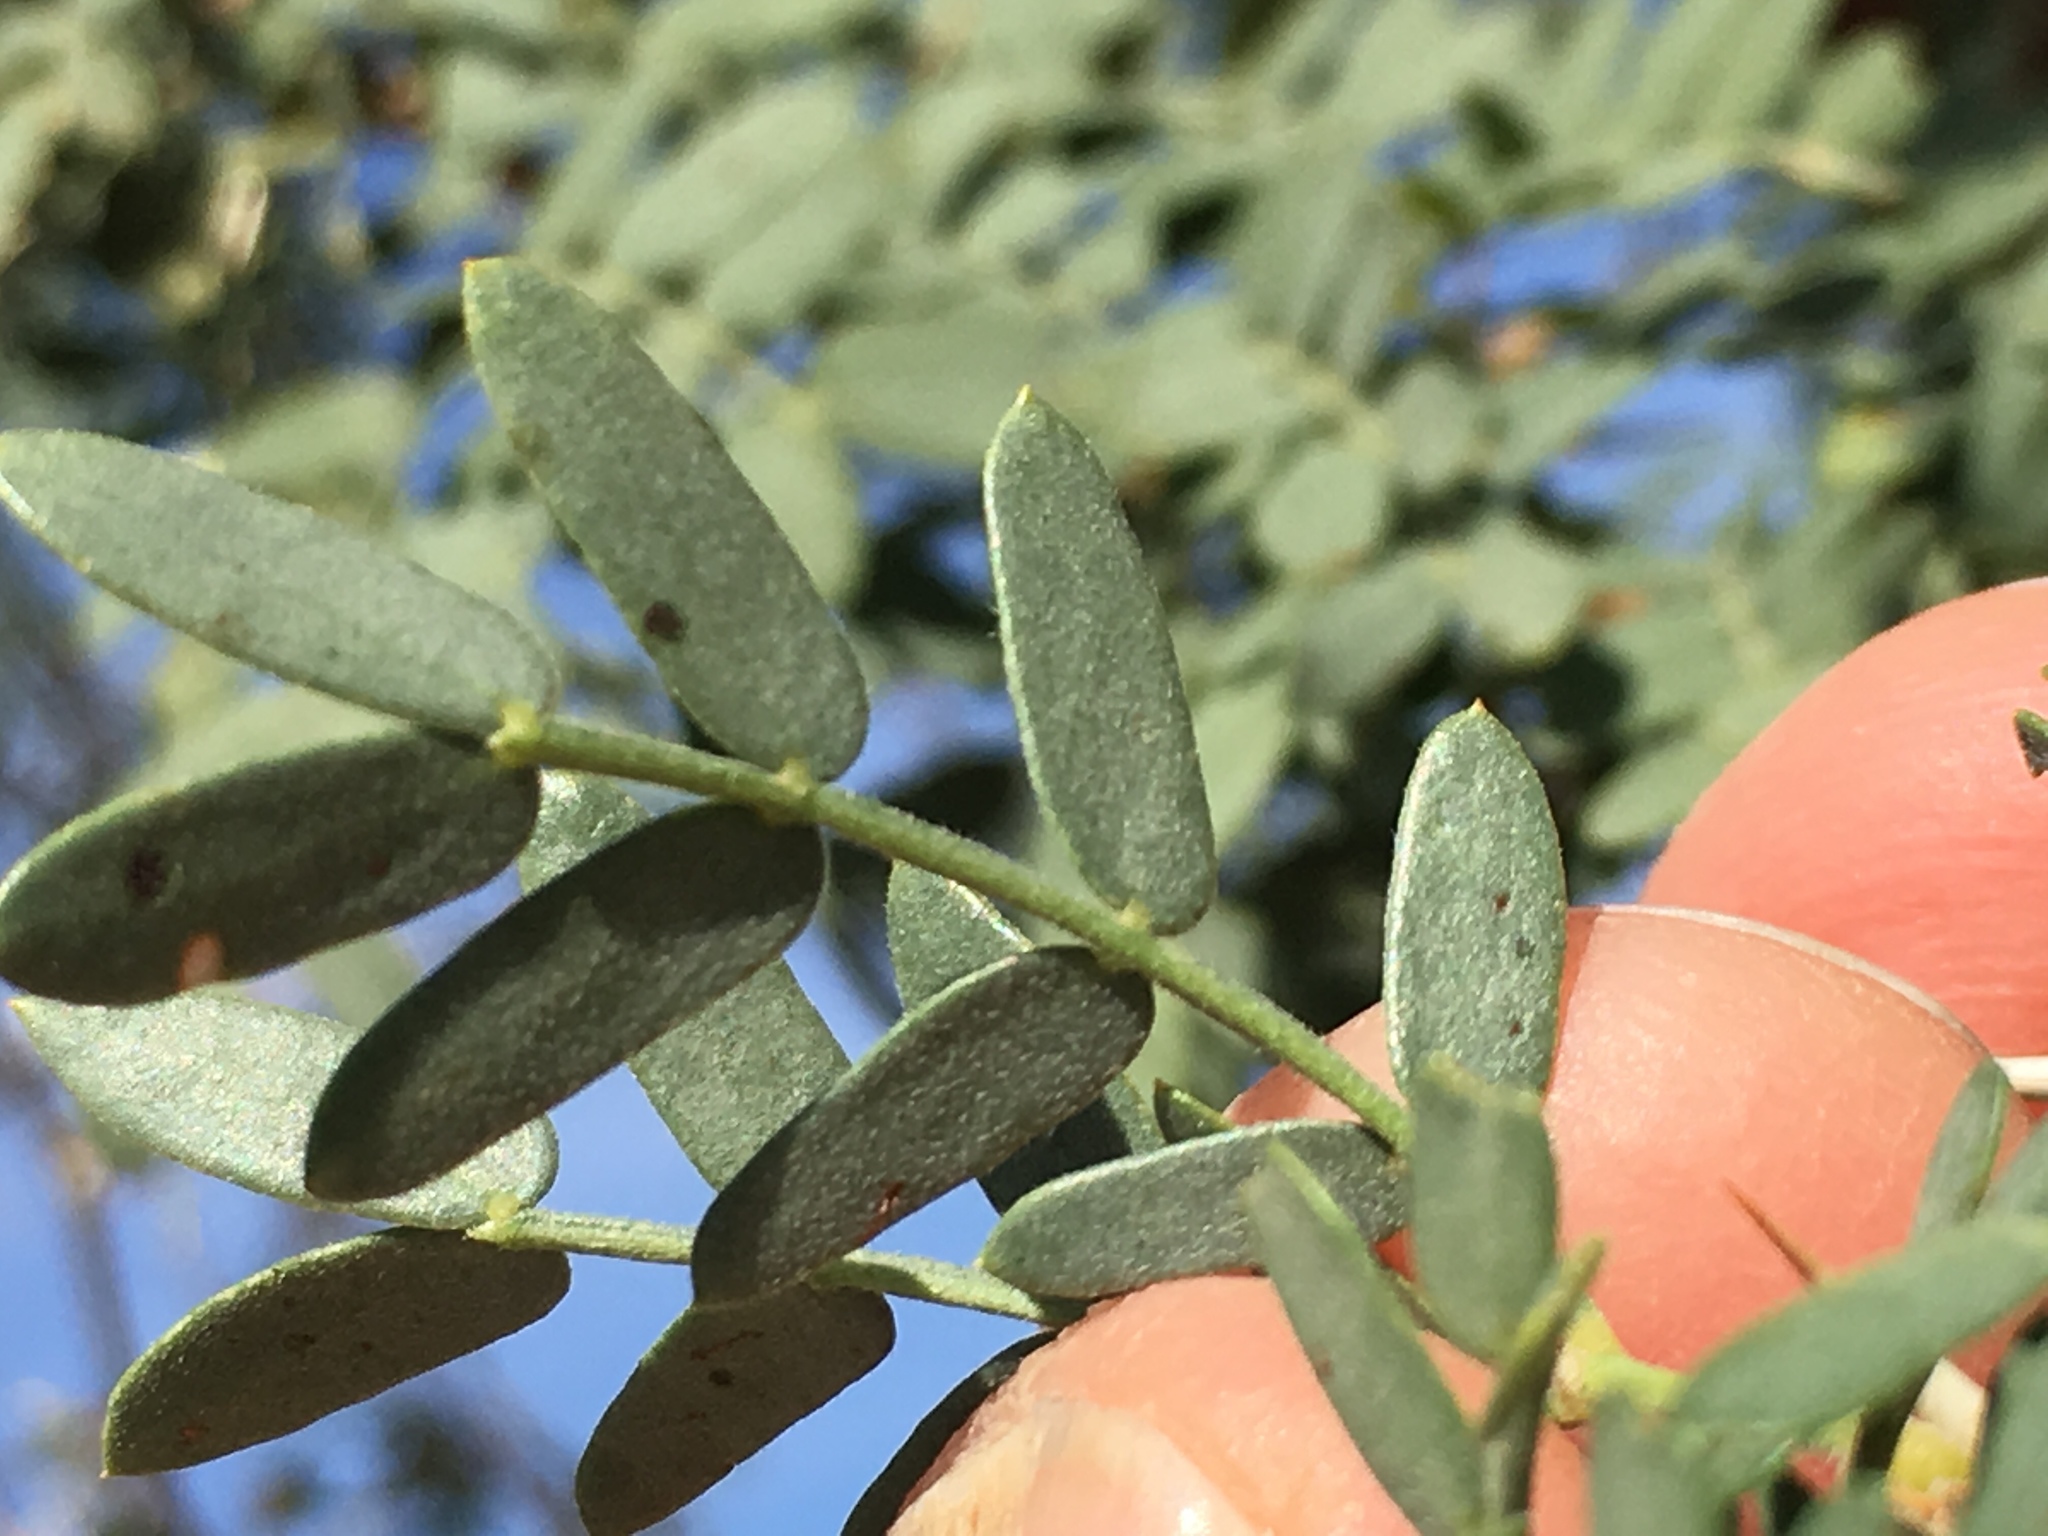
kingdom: Plantae
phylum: Tracheophyta
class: Magnoliopsida
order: Fabales
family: Fabaceae
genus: Prosopis
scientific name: Prosopis pubescens
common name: Screw-bean
